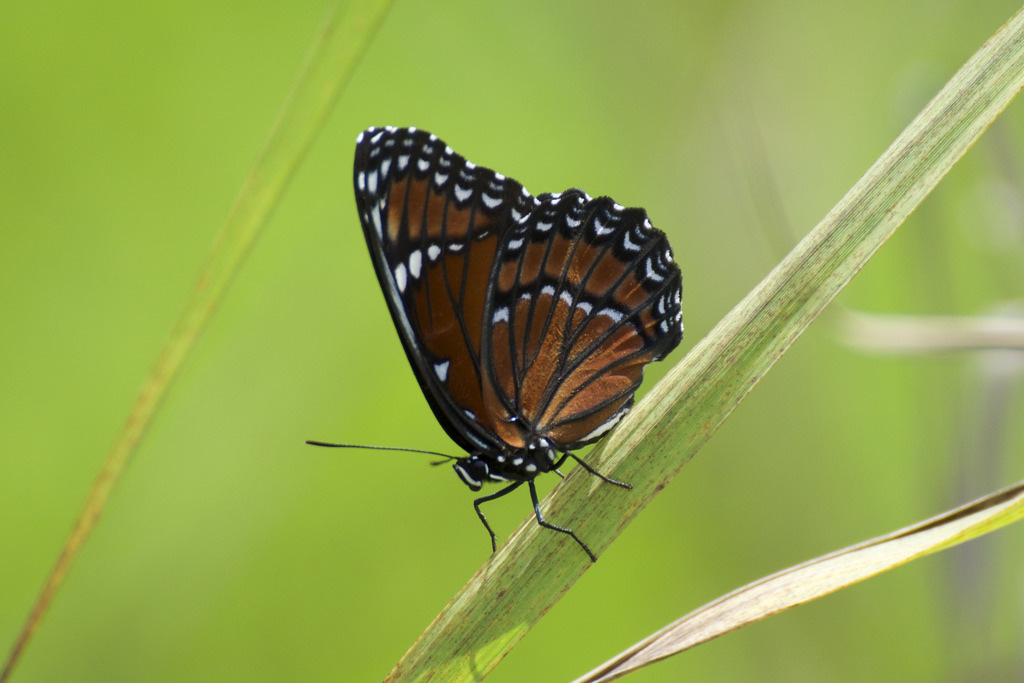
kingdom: Animalia
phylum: Arthropoda
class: Insecta
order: Lepidoptera
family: Nymphalidae
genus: Limenitis
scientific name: Limenitis archippus
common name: Viceroy
